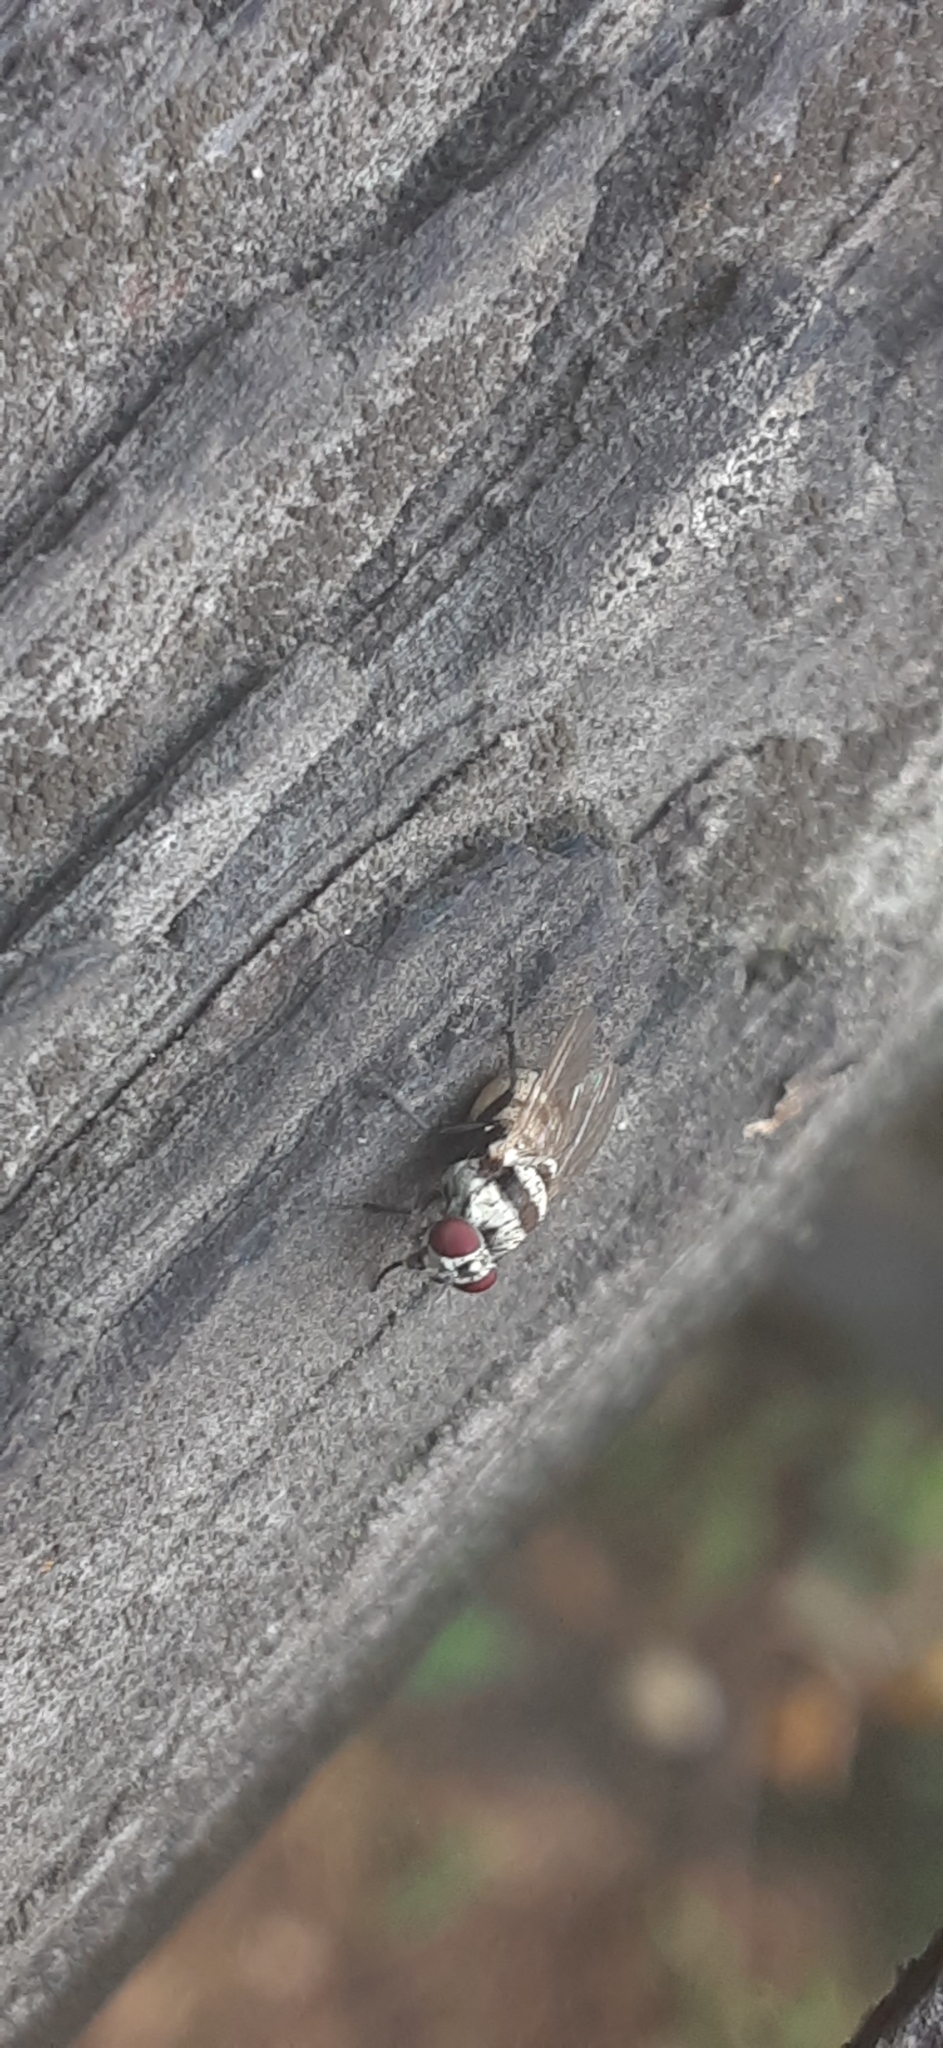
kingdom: Animalia
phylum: Arthropoda
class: Insecta
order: Diptera
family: Anthomyiidae
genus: Anthomyia
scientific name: Anthomyia illocata
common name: Fly
